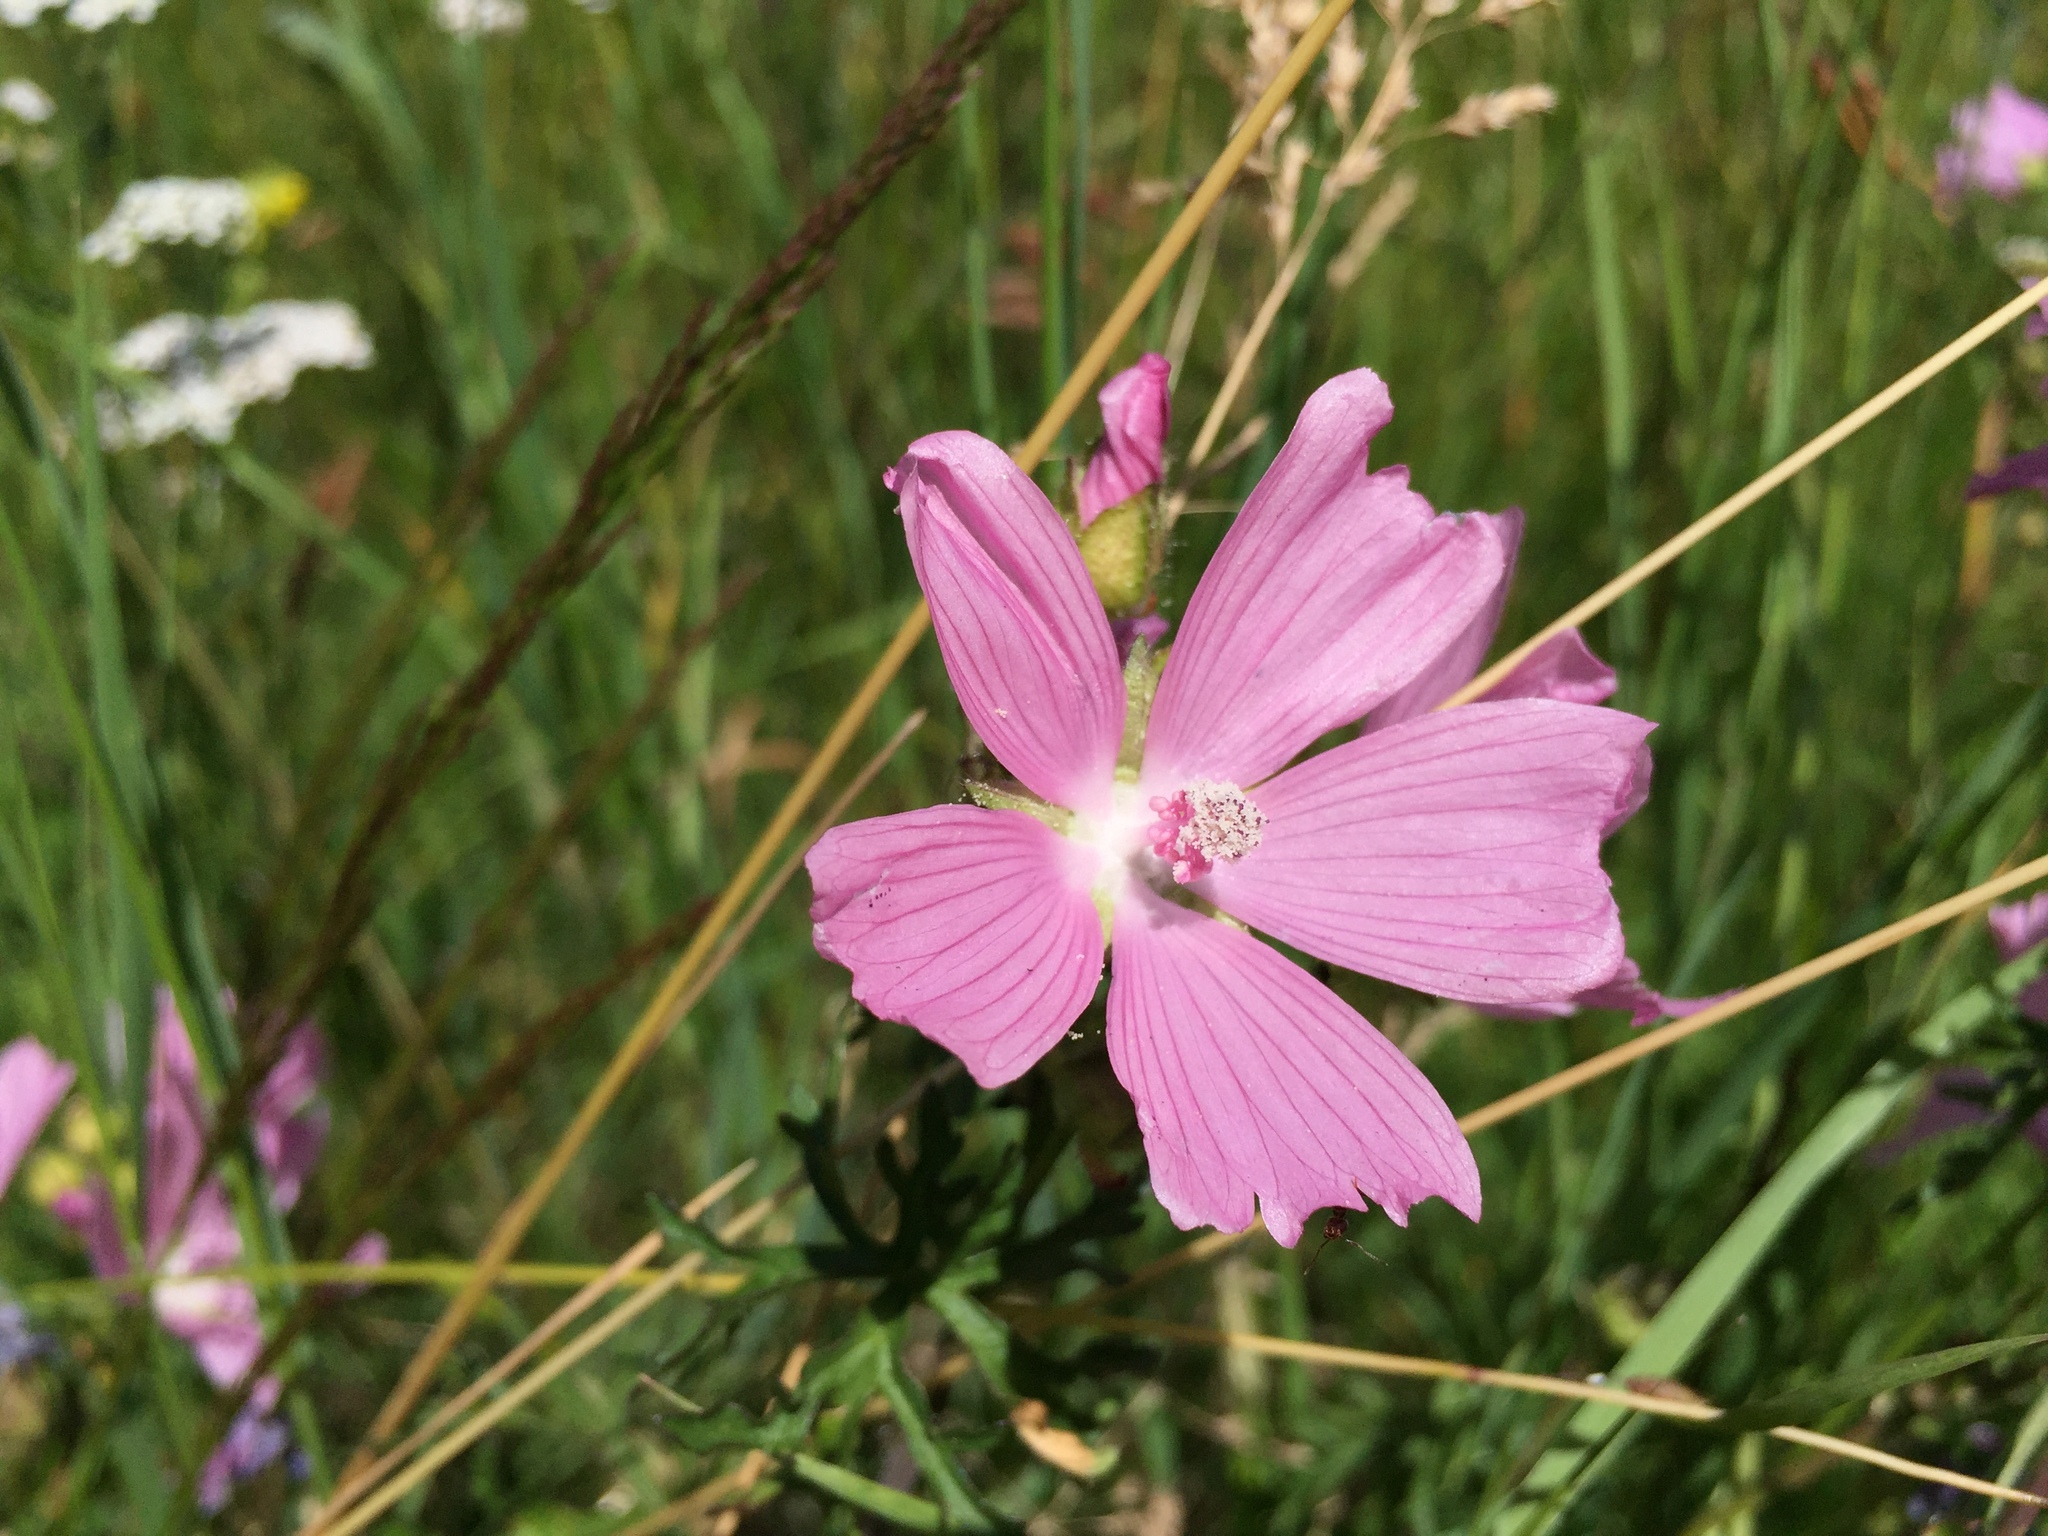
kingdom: Plantae
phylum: Tracheophyta
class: Magnoliopsida
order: Malvales
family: Malvaceae
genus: Malva
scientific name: Malva moschata
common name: Musk mallow
